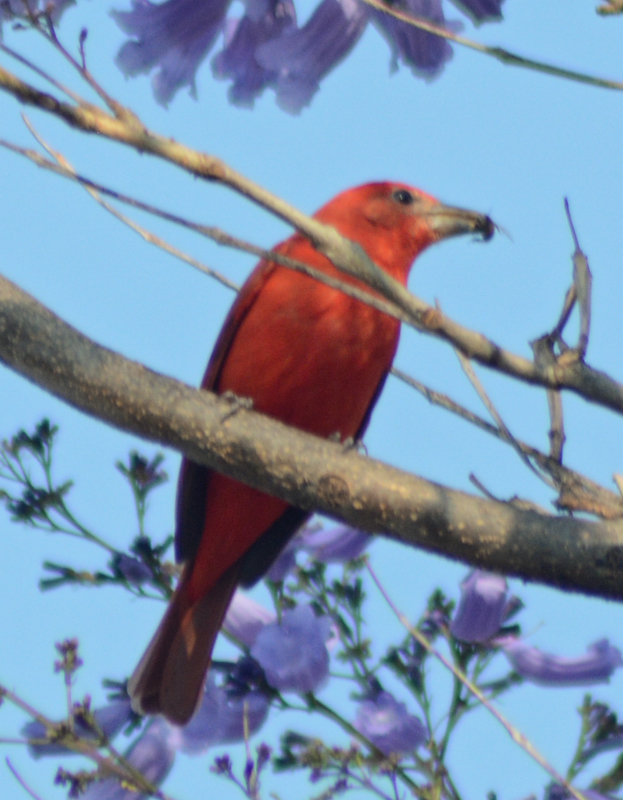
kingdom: Animalia
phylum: Chordata
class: Aves
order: Passeriformes
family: Cardinalidae
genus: Piranga
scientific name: Piranga rubra
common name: Summer tanager
